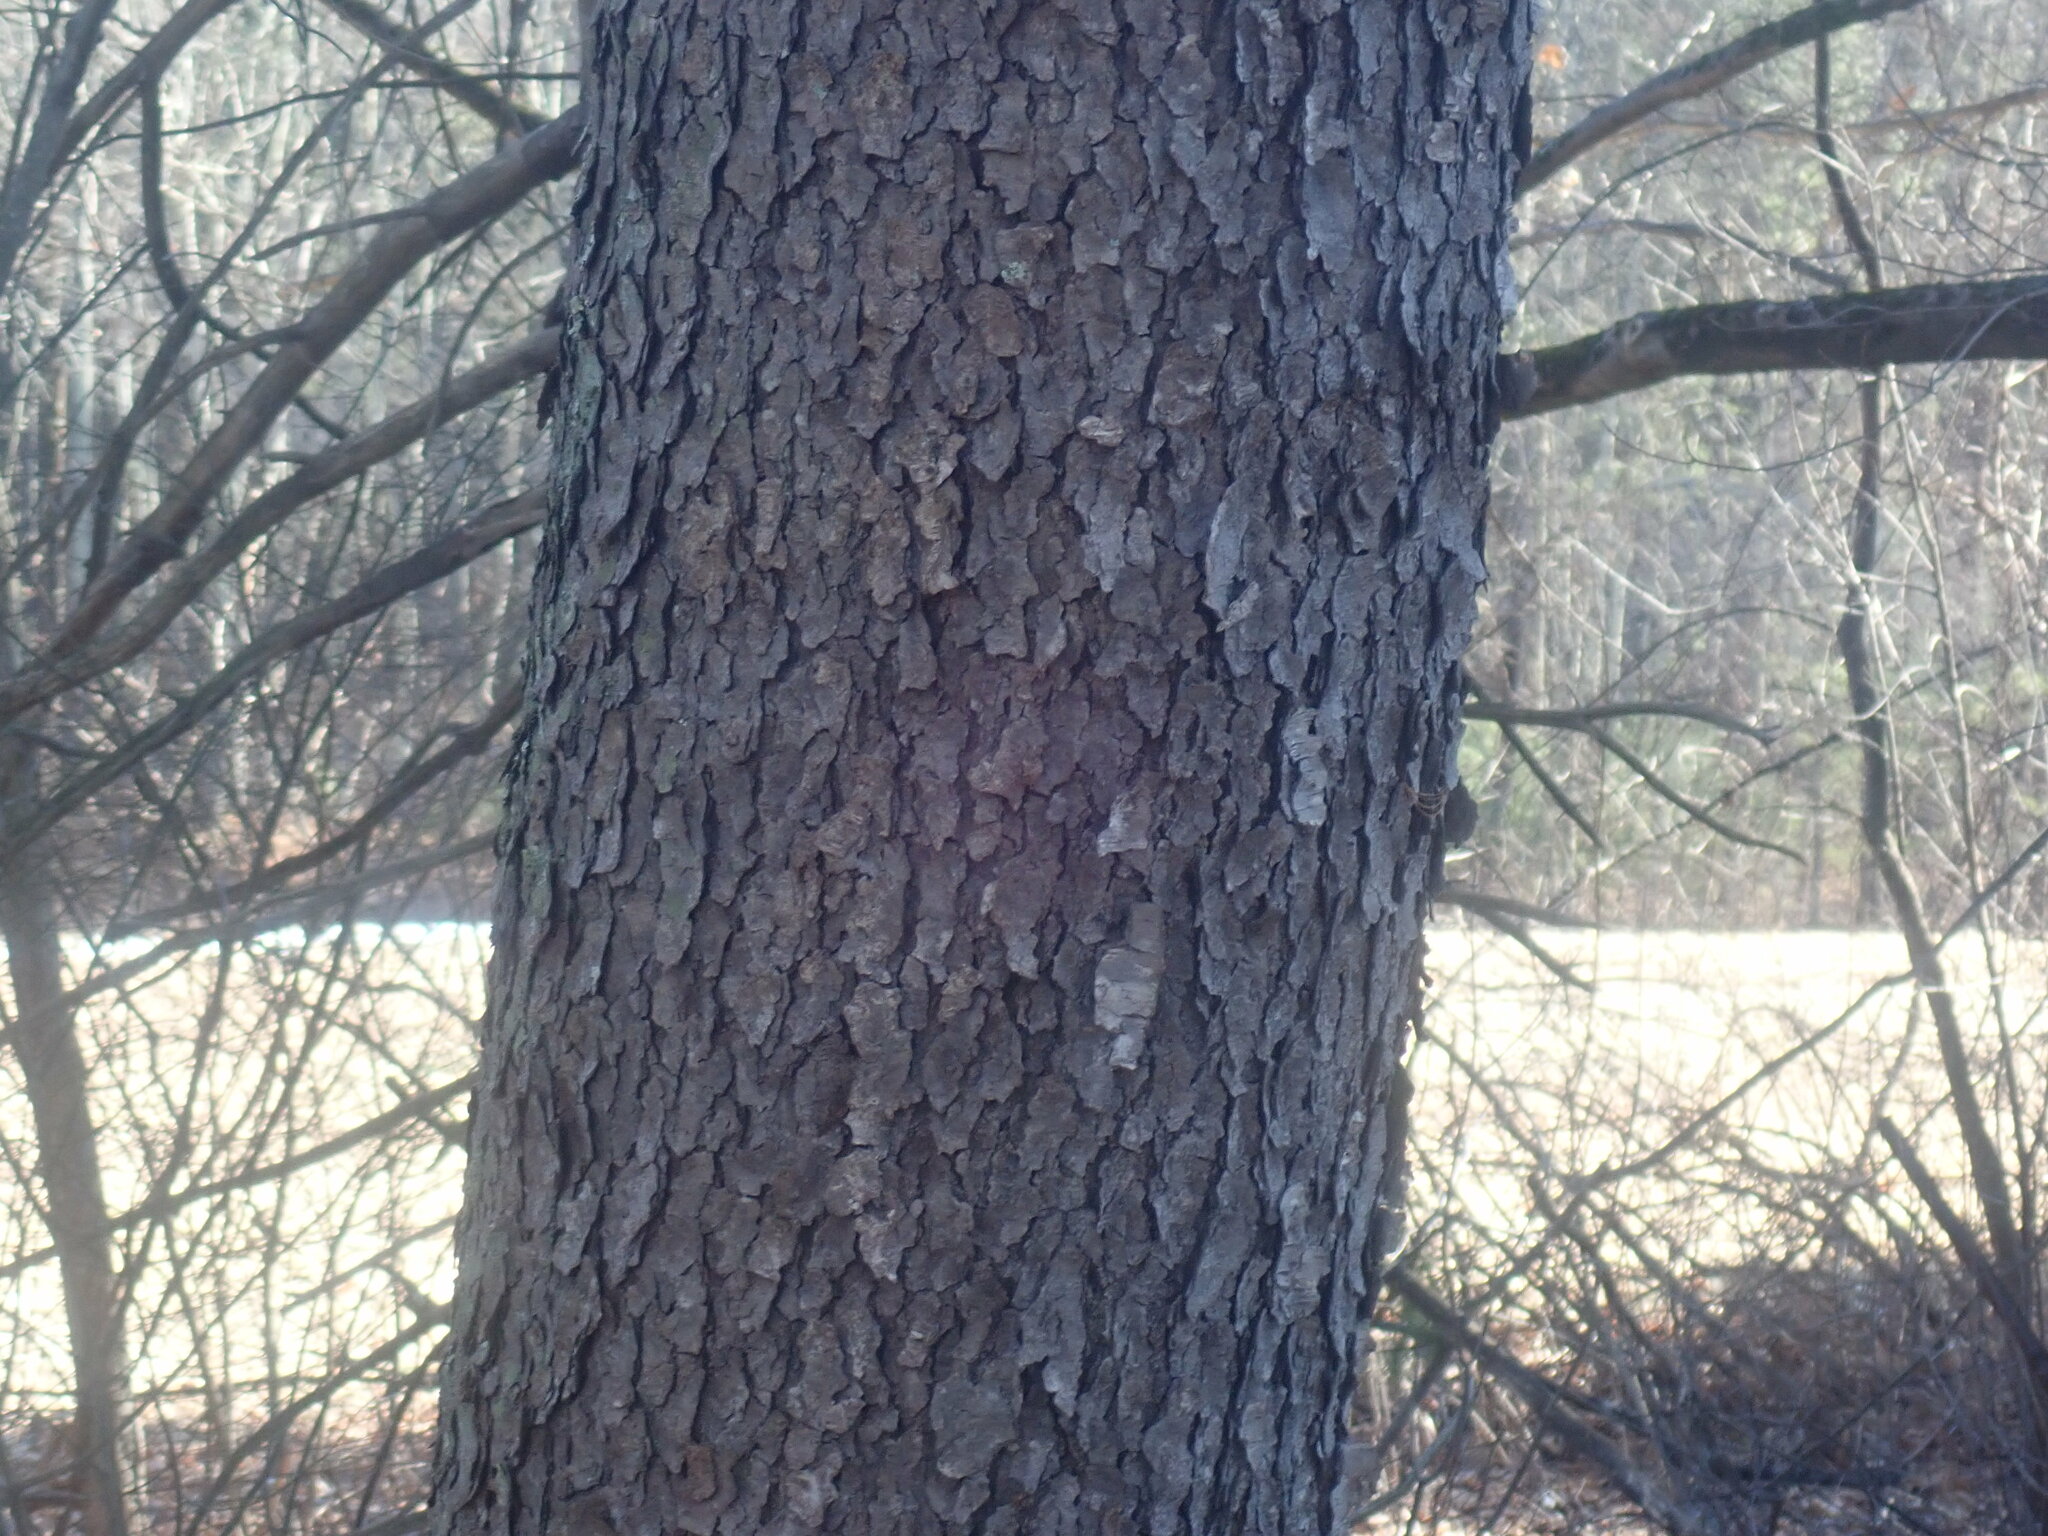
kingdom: Plantae
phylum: Tracheophyta
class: Magnoliopsida
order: Rosales
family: Rosaceae
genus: Prunus
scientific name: Prunus serotina
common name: Black cherry
